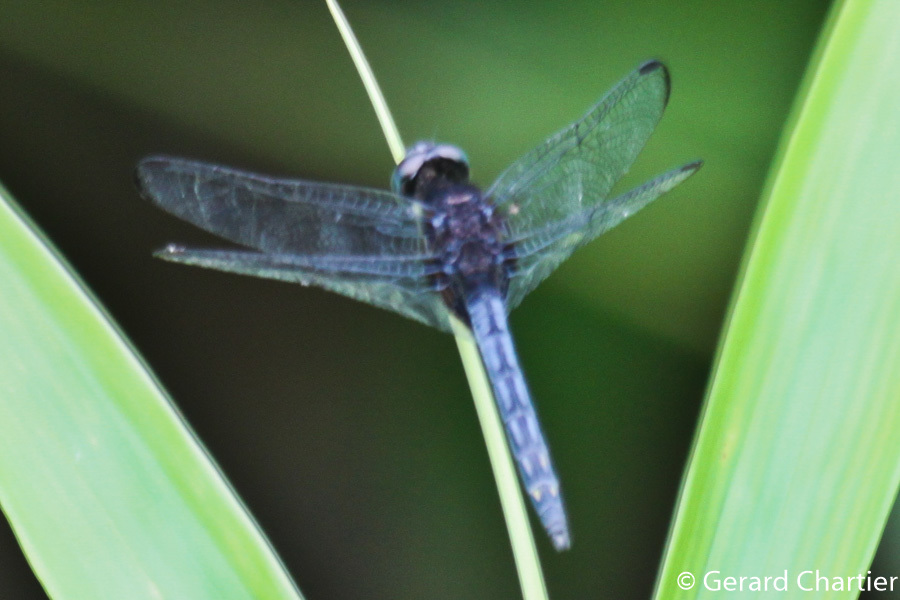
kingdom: Animalia
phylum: Arthropoda
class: Insecta
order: Odonata
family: Libellulidae
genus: Indothemis
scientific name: Indothemis limbata
